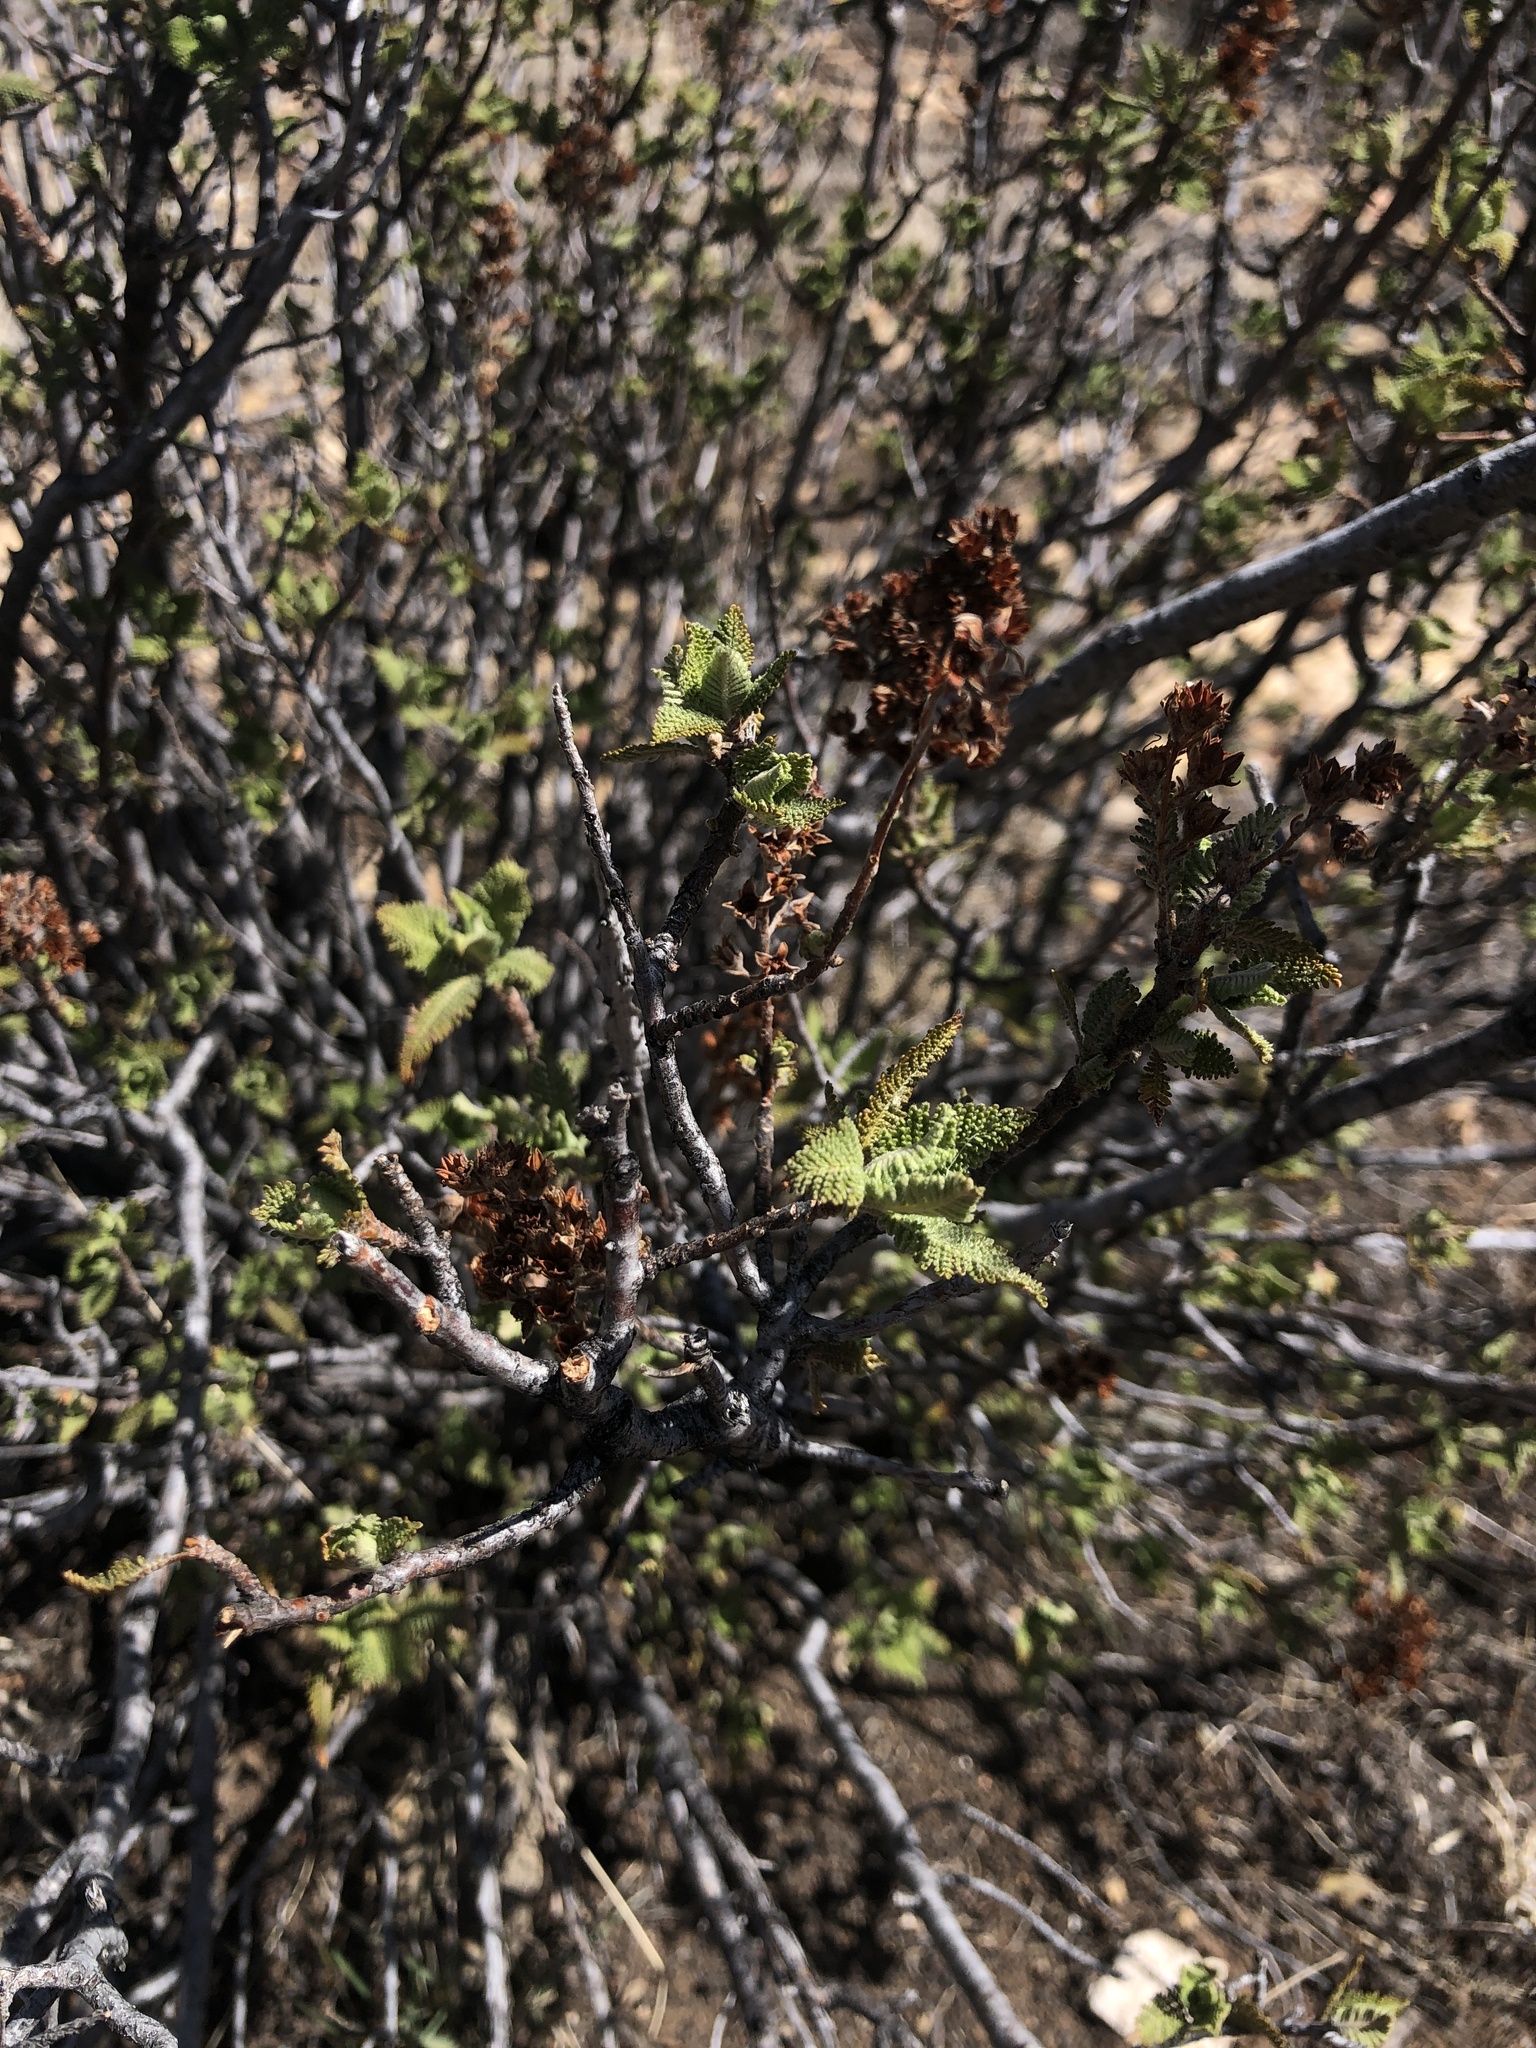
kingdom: Plantae
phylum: Tracheophyta
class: Magnoliopsida
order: Rosales
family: Rosaceae
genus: Chamaebatiaria
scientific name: Chamaebatiaria millefolium
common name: Fernbush
